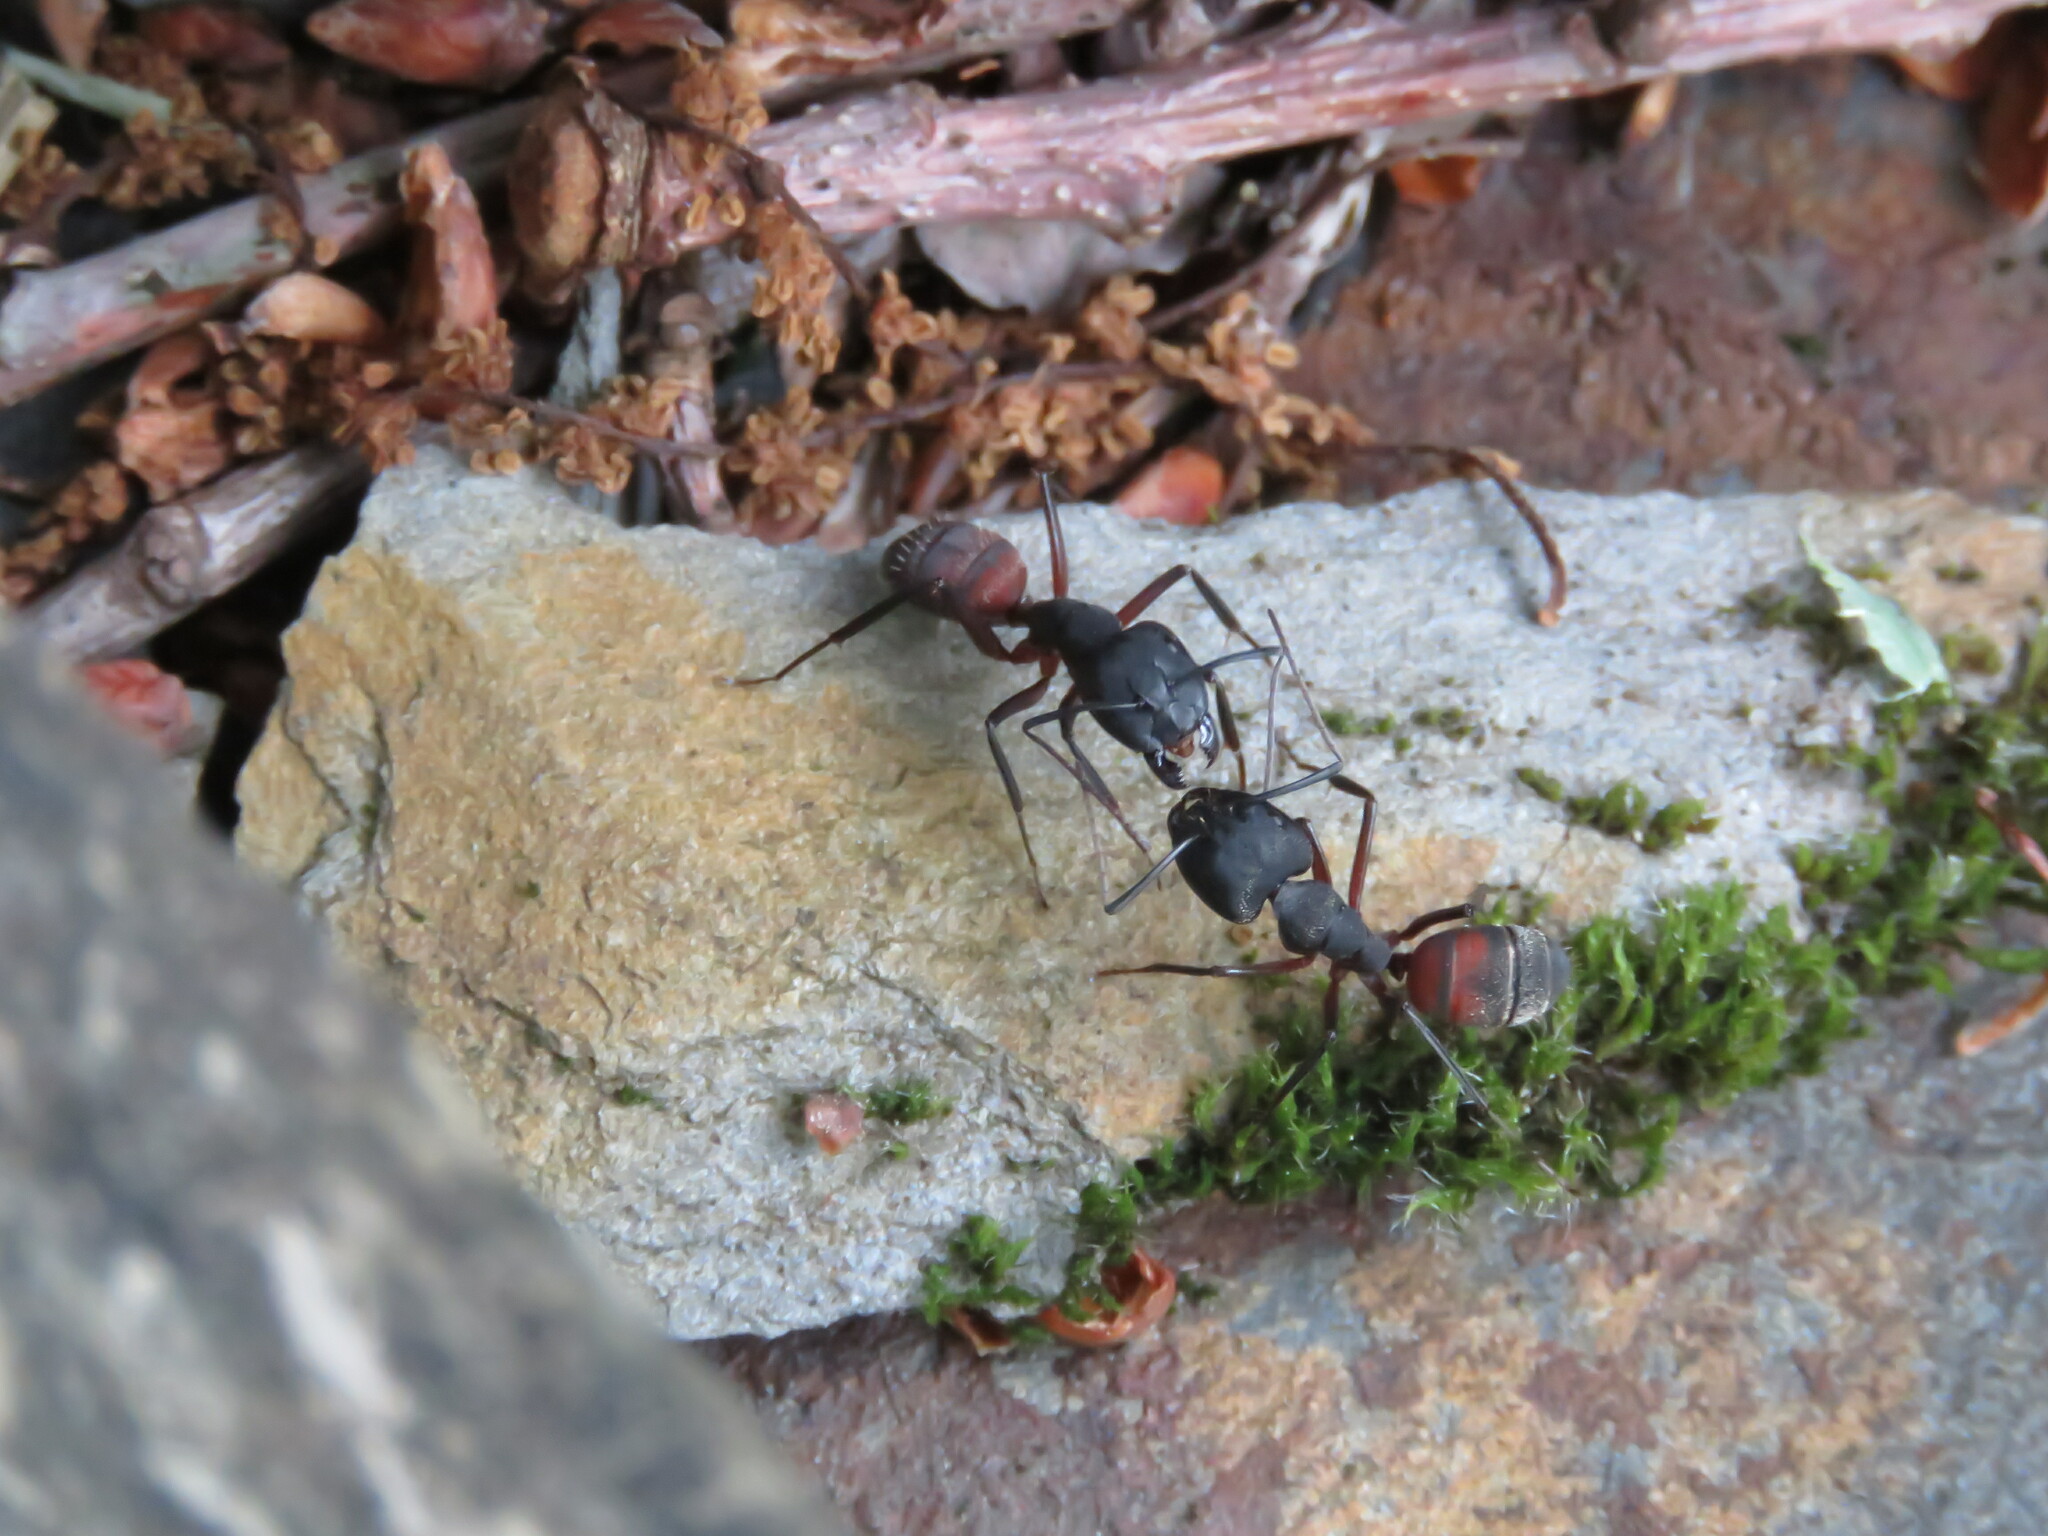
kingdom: Animalia
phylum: Arthropoda
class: Insecta
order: Hymenoptera
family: Formicidae
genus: Camponotus
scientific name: Camponotus cruentatus
